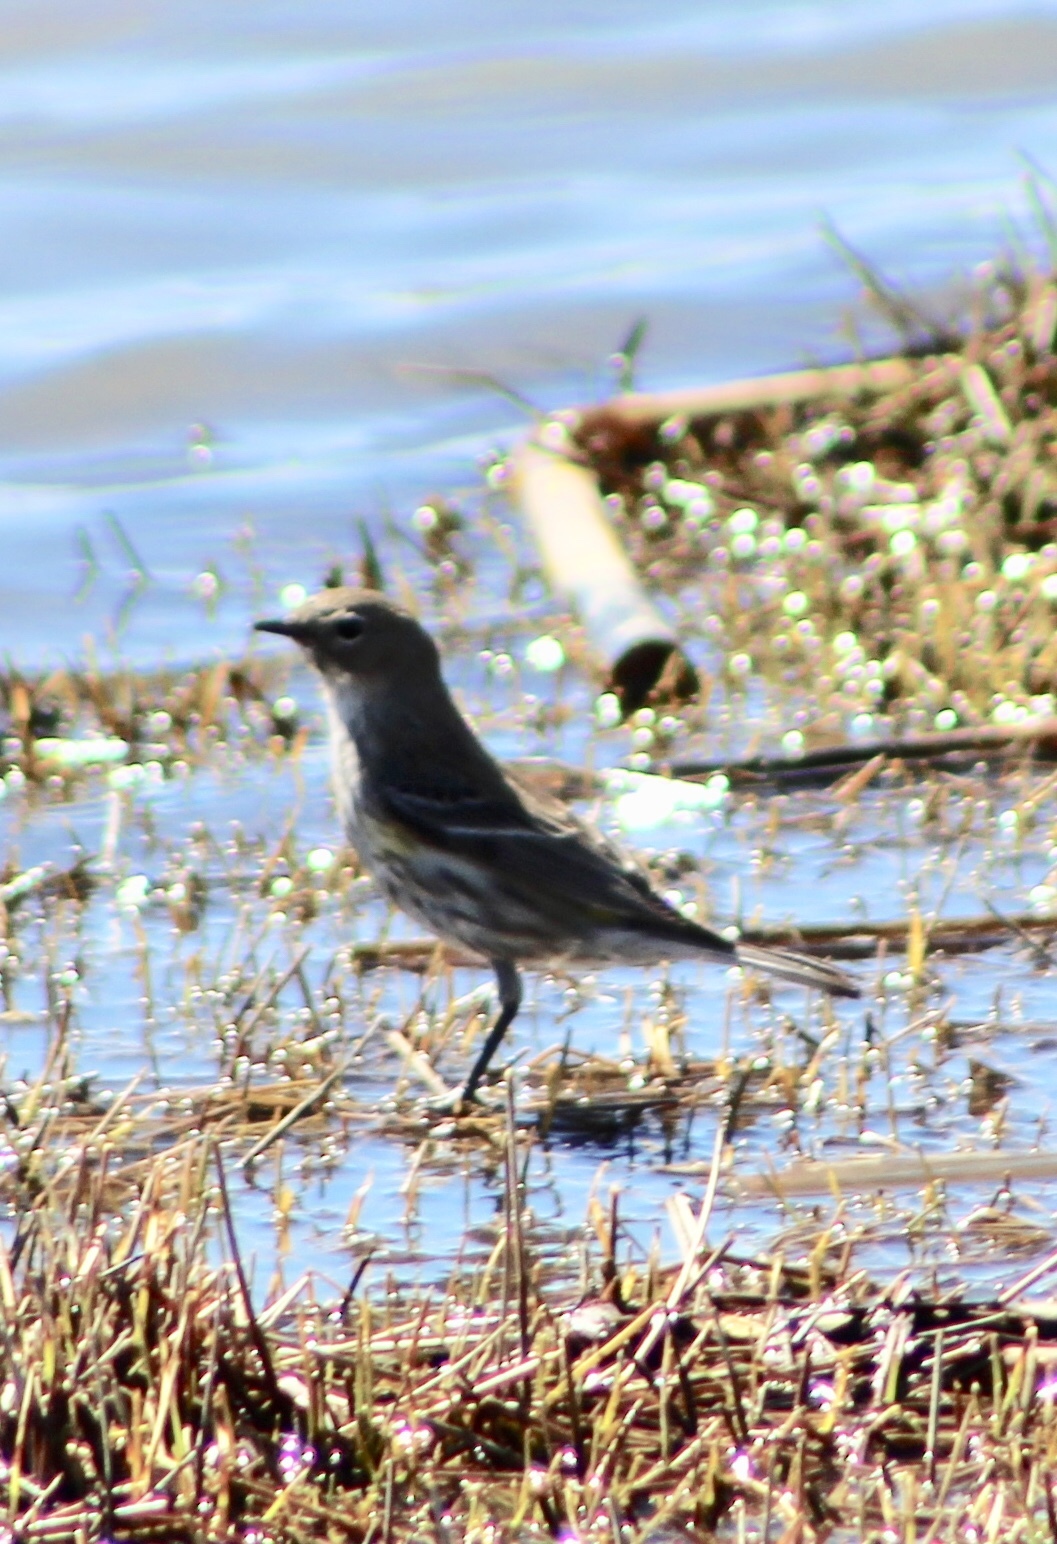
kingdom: Animalia
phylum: Chordata
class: Aves
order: Passeriformes
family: Parulidae
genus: Setophaga
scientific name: Setophaga coronata
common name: Myrtle warbler
